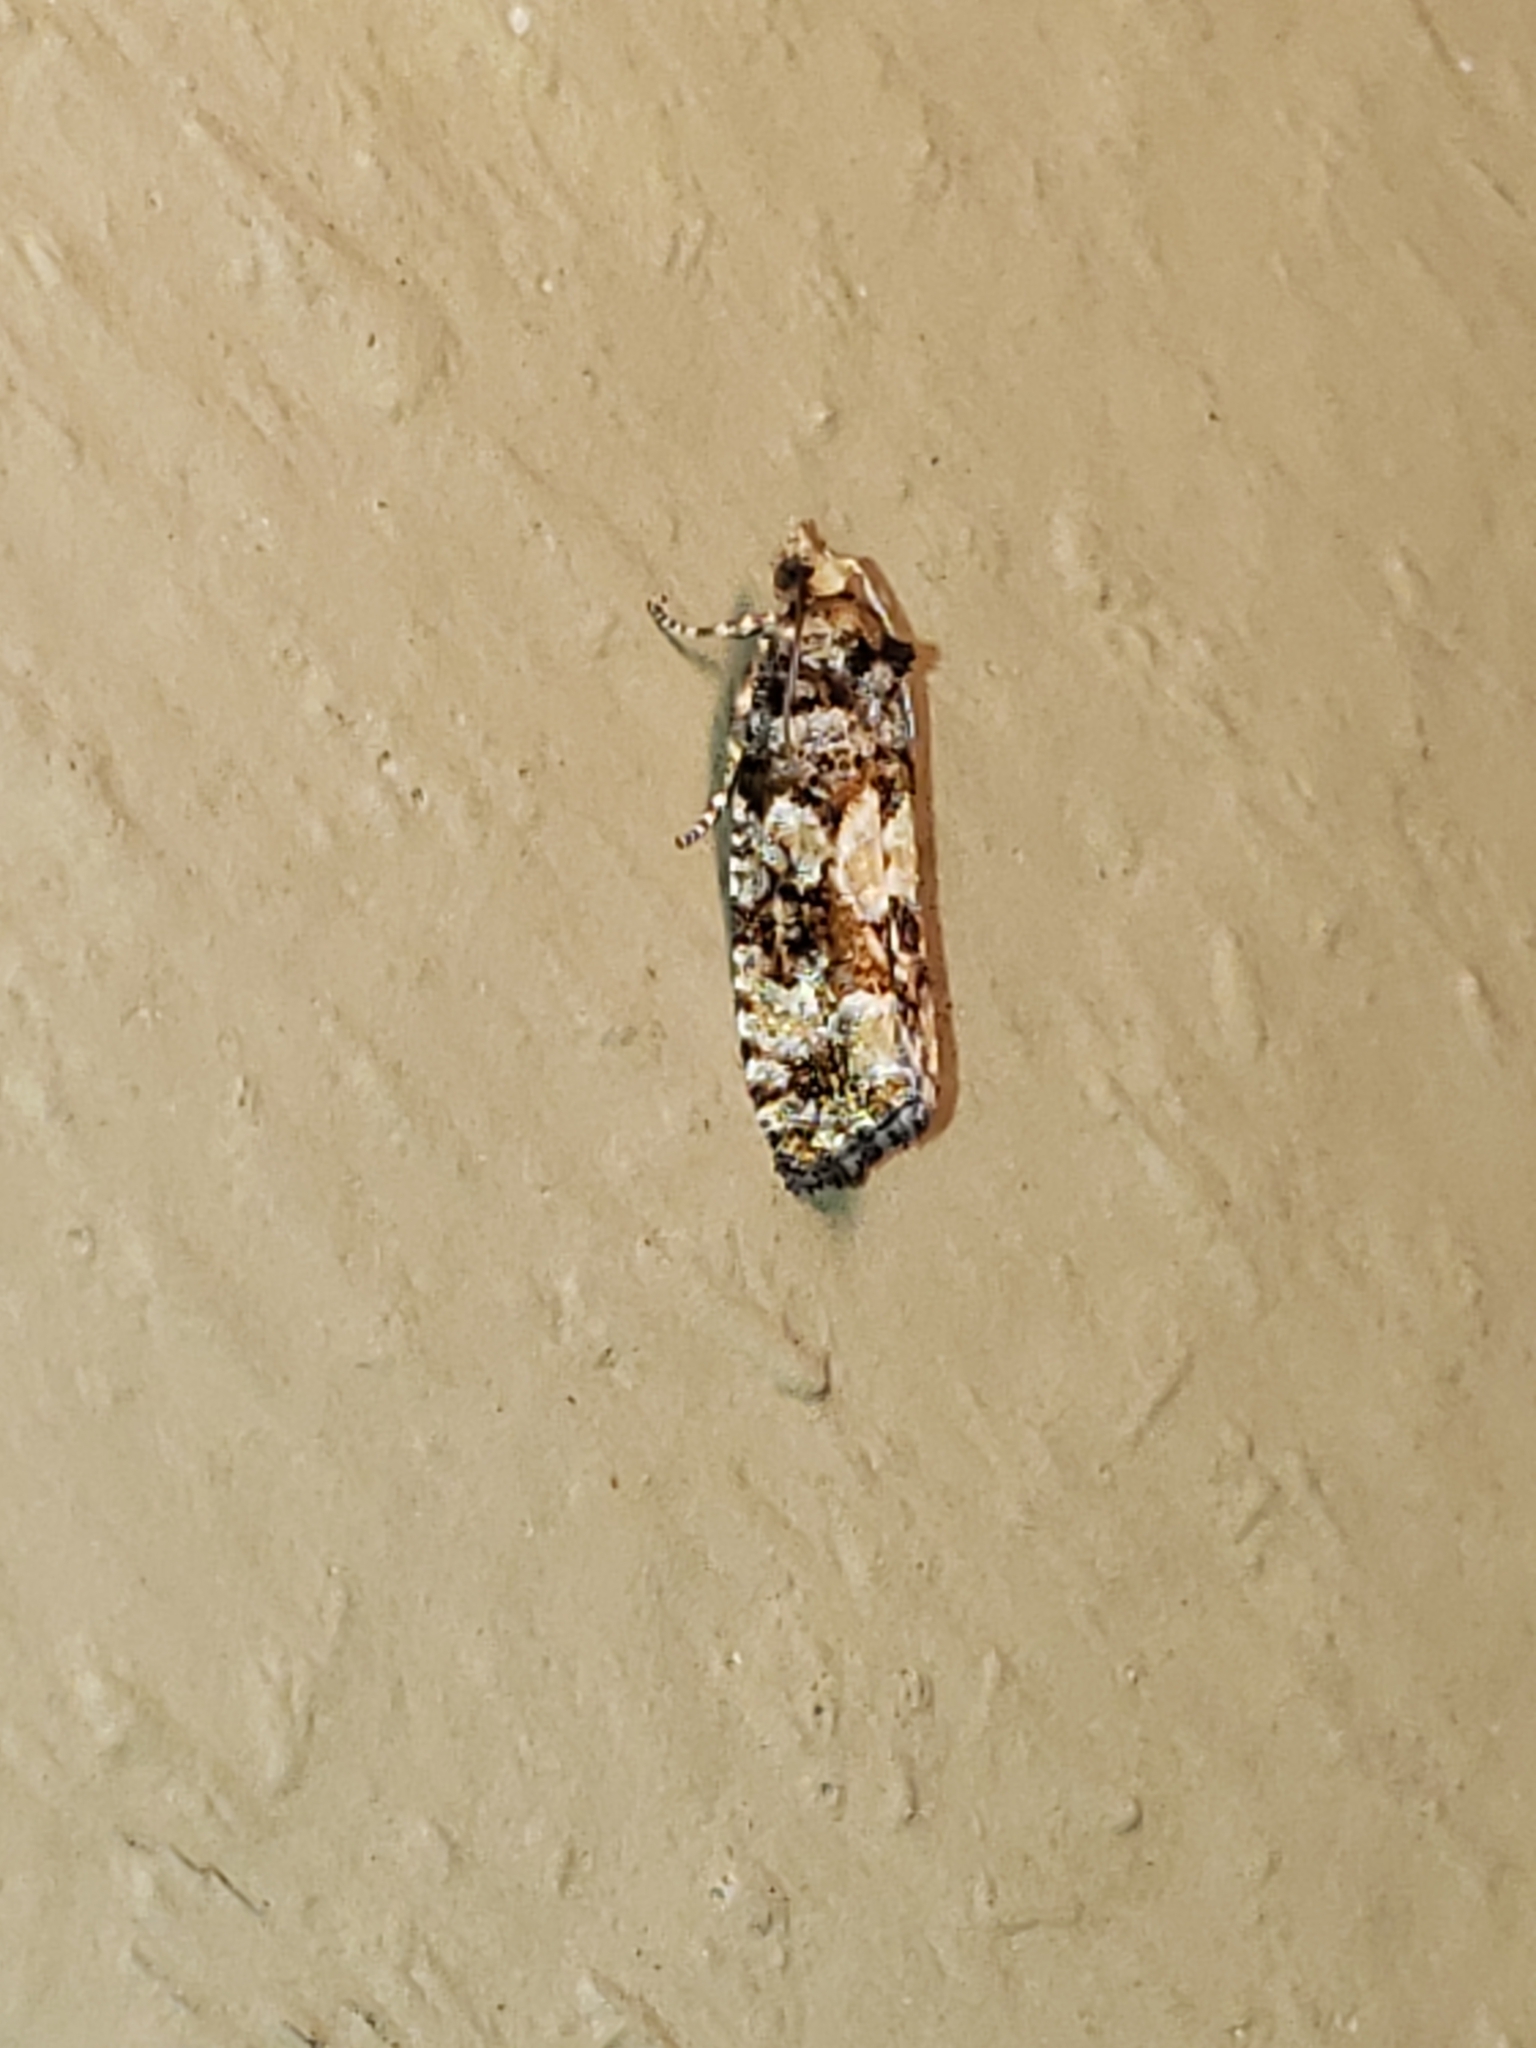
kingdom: Animalia
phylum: Arthropoda
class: Insecta
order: Lepidoptera
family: Tortricidae
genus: Eucopina
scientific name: Eucopina tocullionana
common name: White pinecone borer moth
